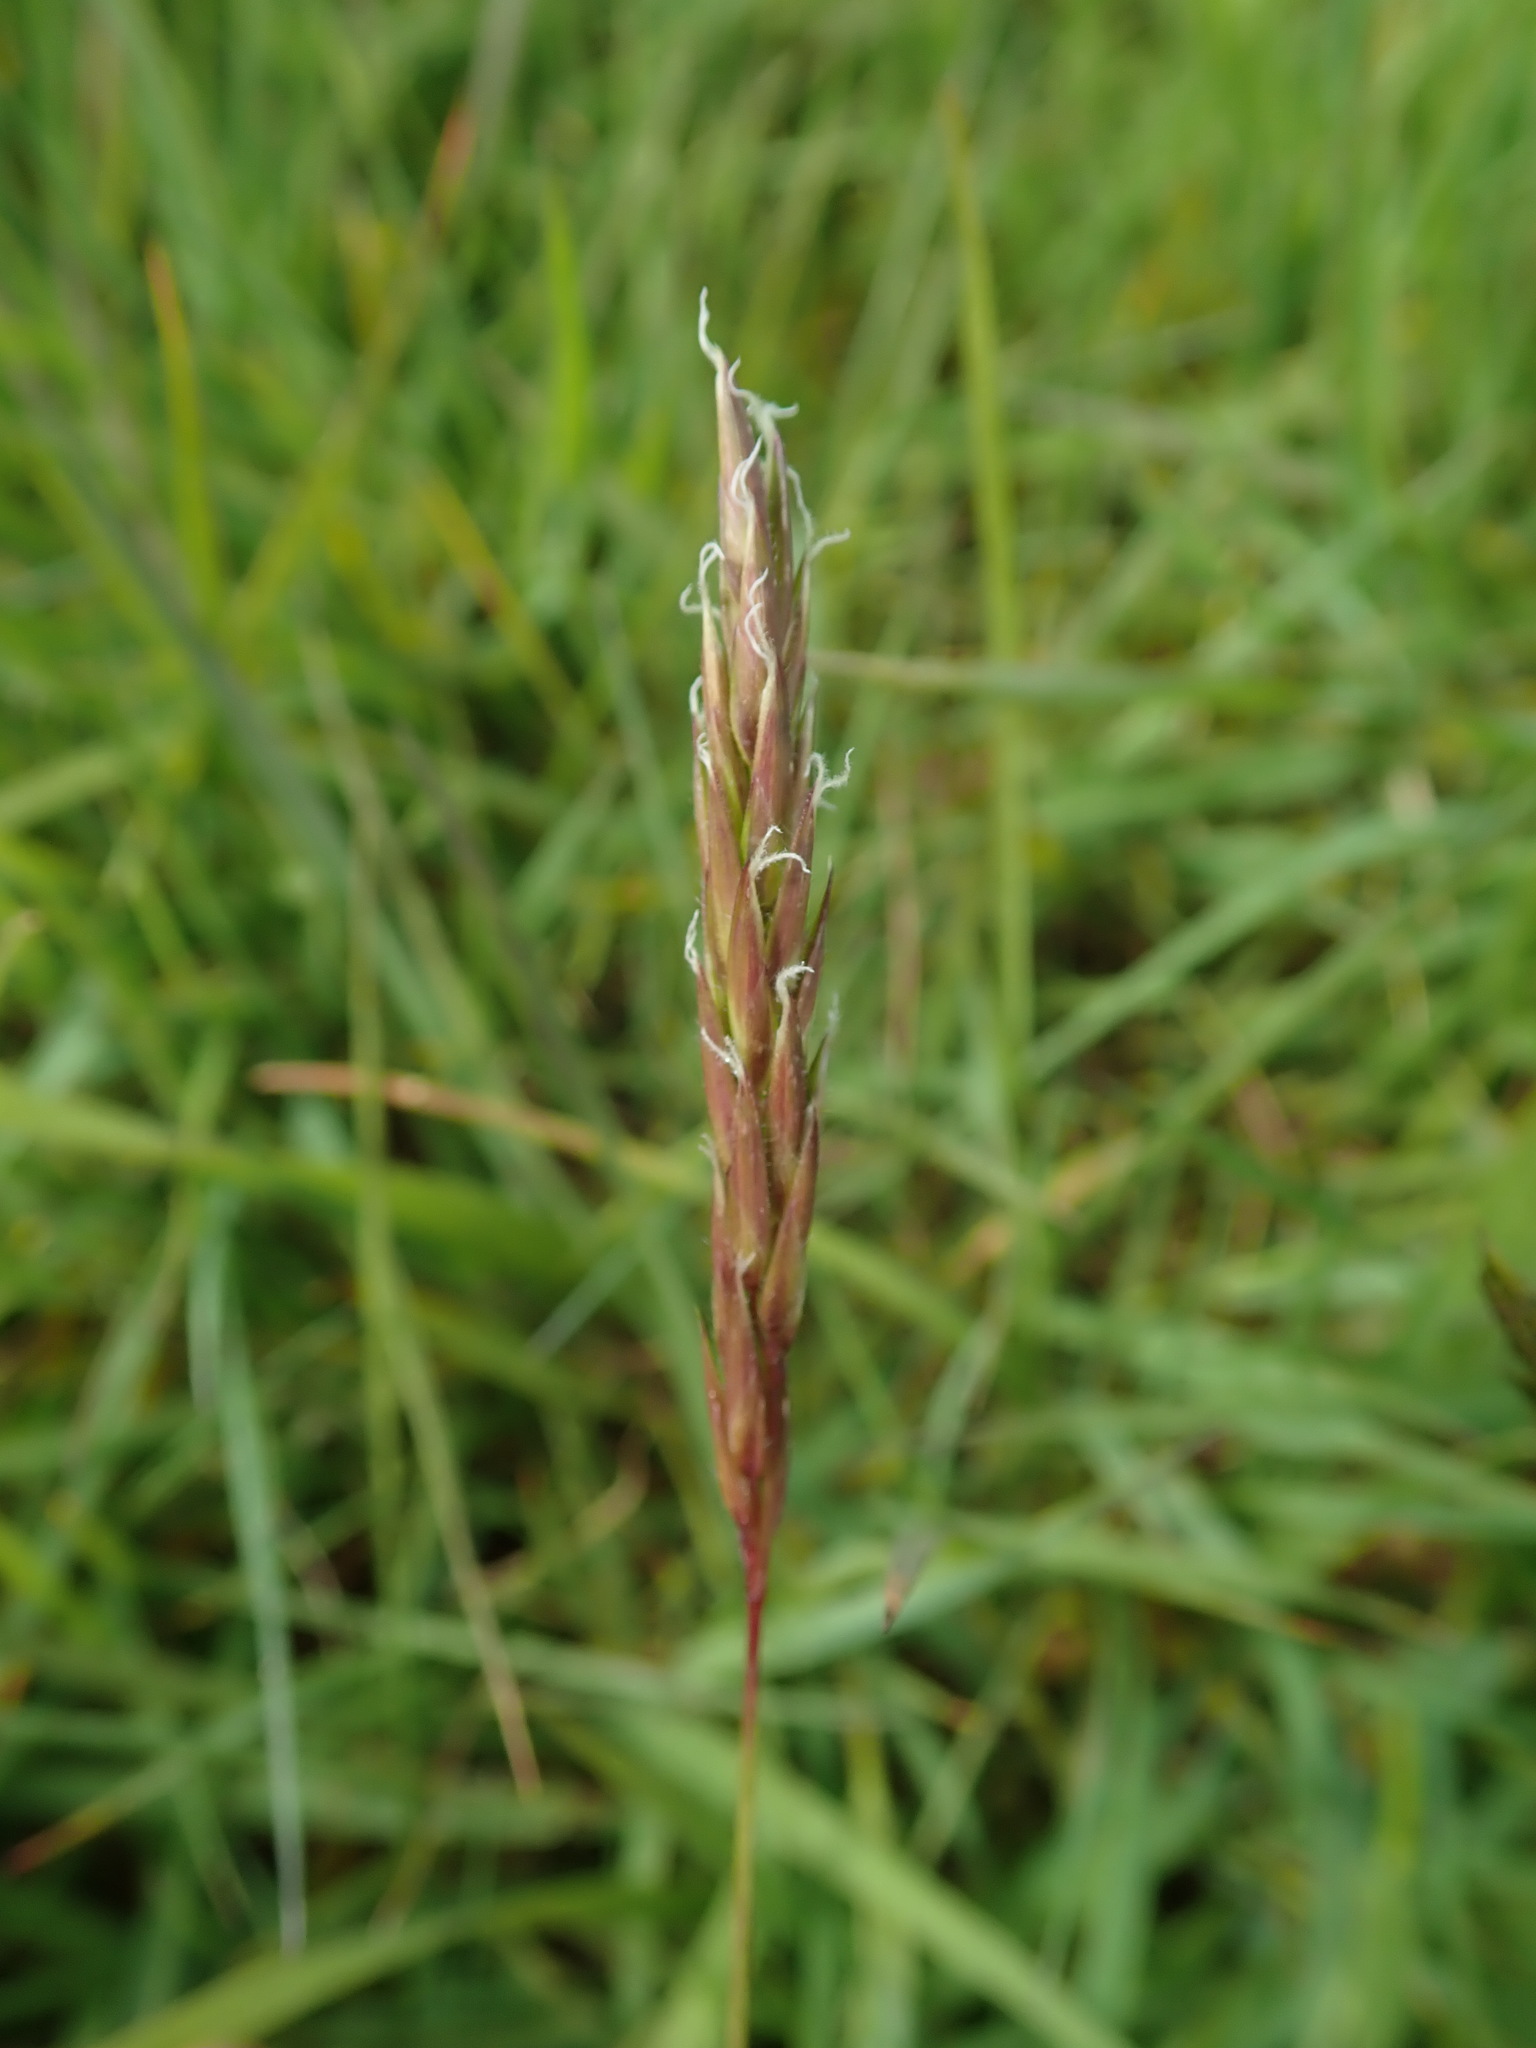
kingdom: Plantae
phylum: Tracheophyta
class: Liliopsida
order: Poales
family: Poaceae
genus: Anthoxanthum
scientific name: Anthoxanthum odoratum
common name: Sweet vernalgrass
